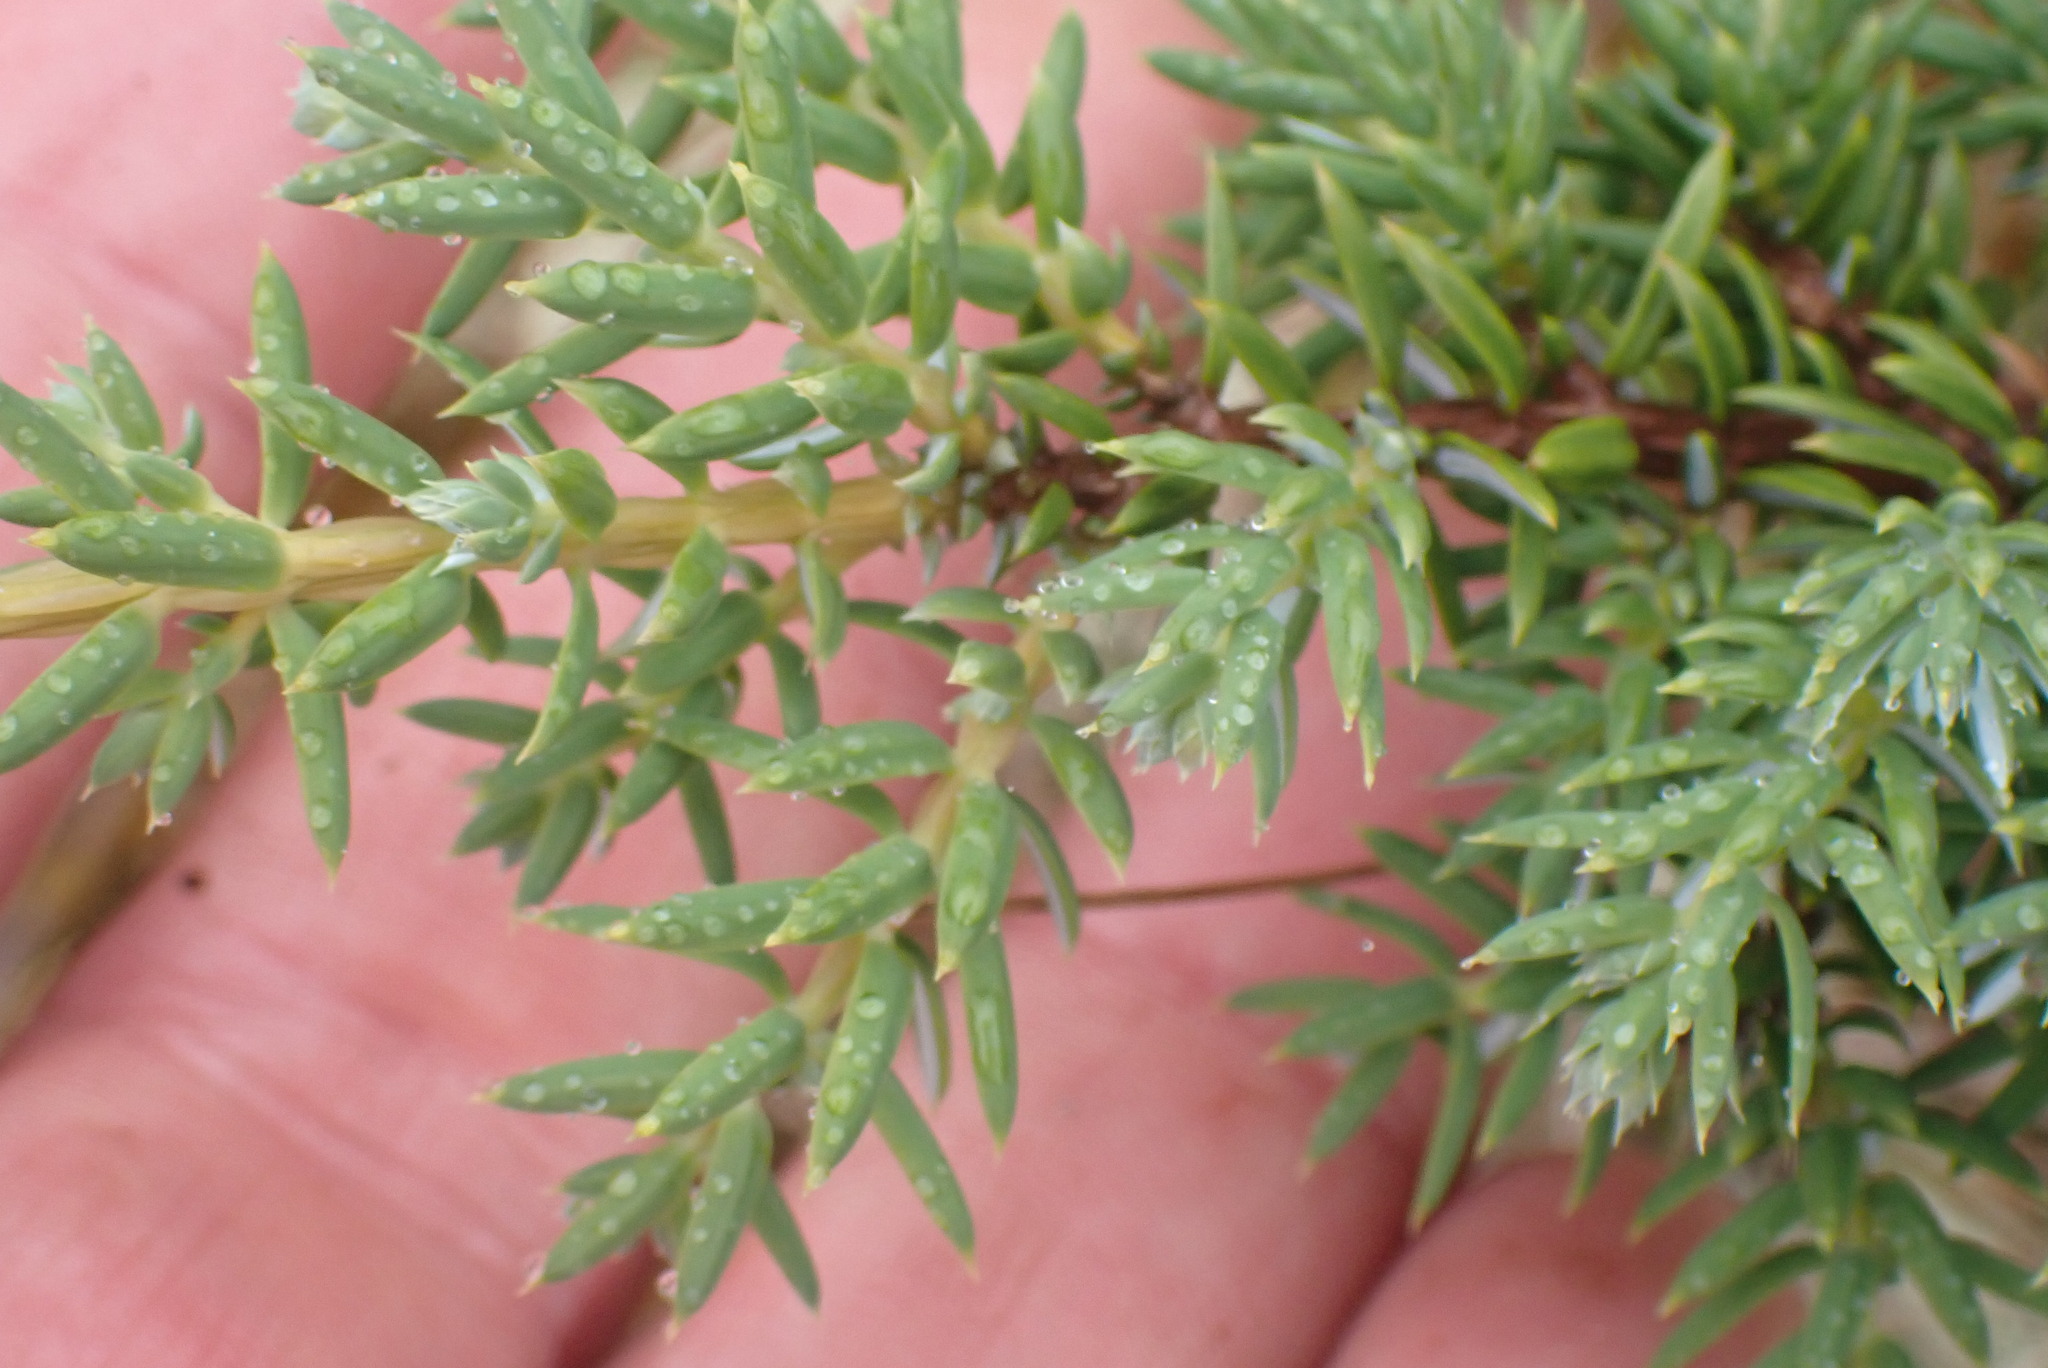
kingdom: Plantae
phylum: Tracheophyta
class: Pinopsida
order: Pinales
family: Cupressaceae
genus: Juniperus
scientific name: Juniperus communis
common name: Common juniper
